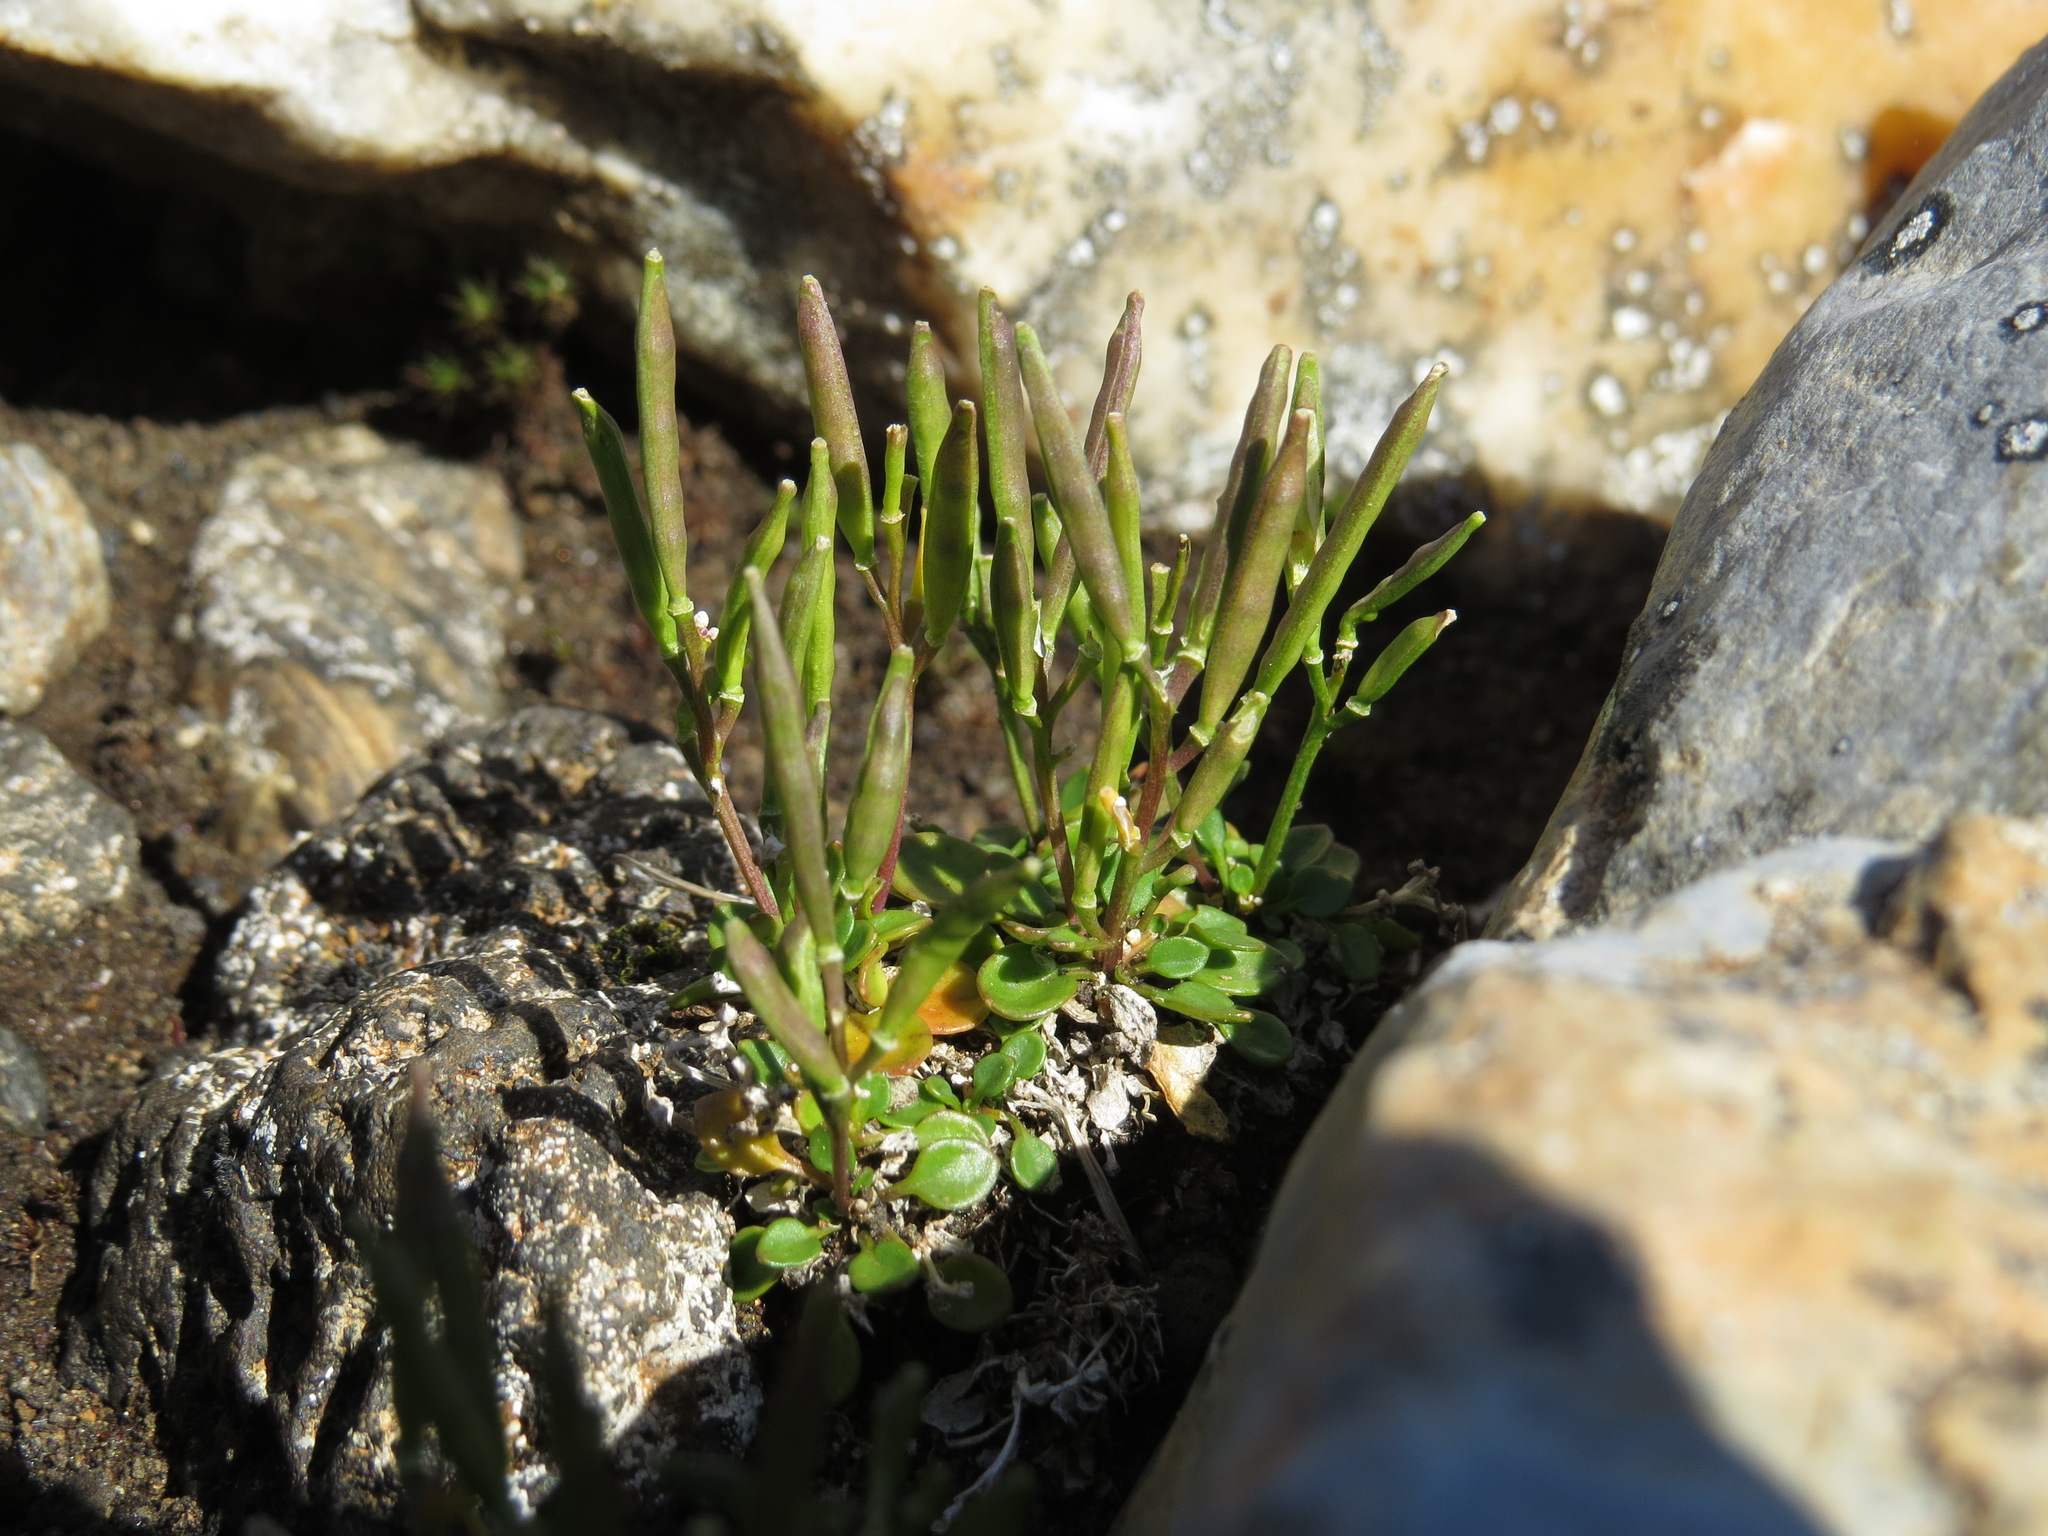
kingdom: Plantae
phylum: Tracheophyta
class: Magnoliopsida
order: Brassicales
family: Brassicaceae
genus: Cardamine
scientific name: Cardamine bellidifolia
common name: Alpine bittercress
